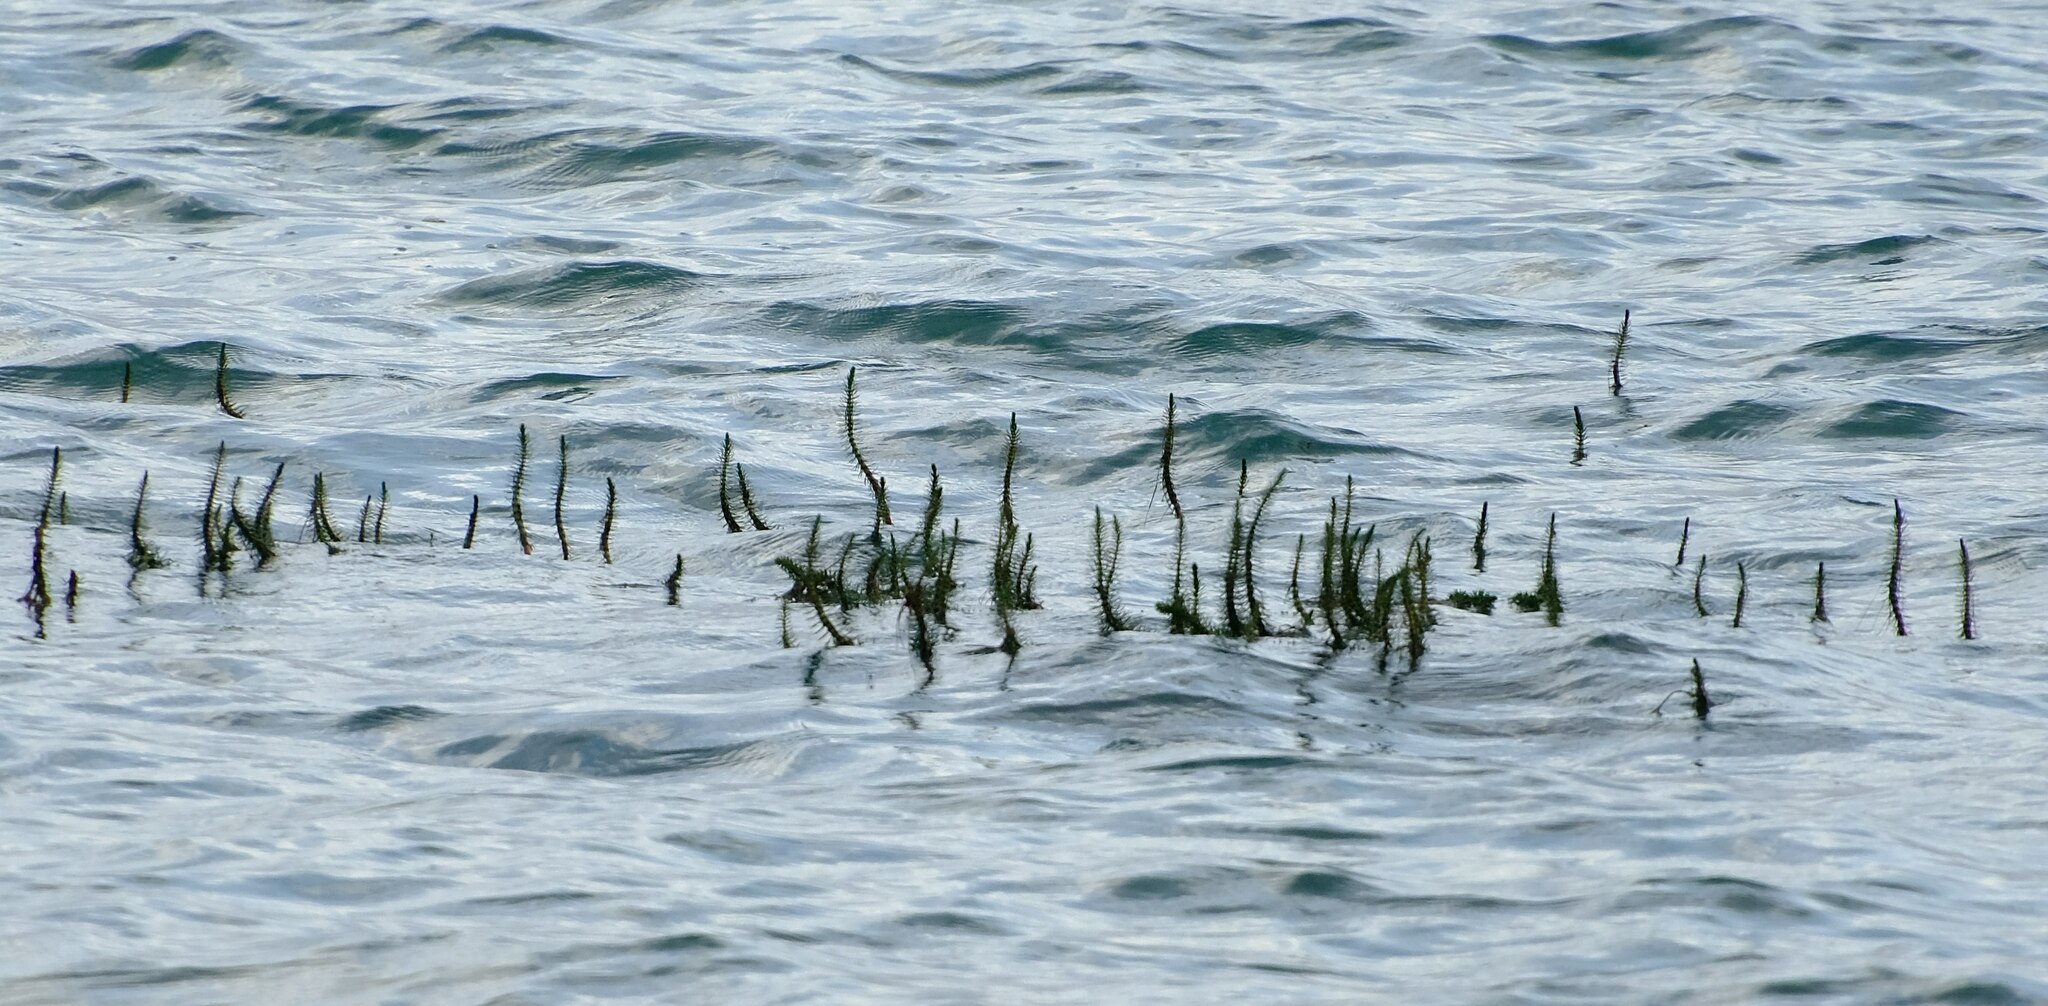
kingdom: Plantae
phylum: Tracheophyta
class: Magnoliopsida
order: Lamiales
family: Plantaginaceae
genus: Hippuris
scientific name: Hippuris vulgaris
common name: Mare's-tail
